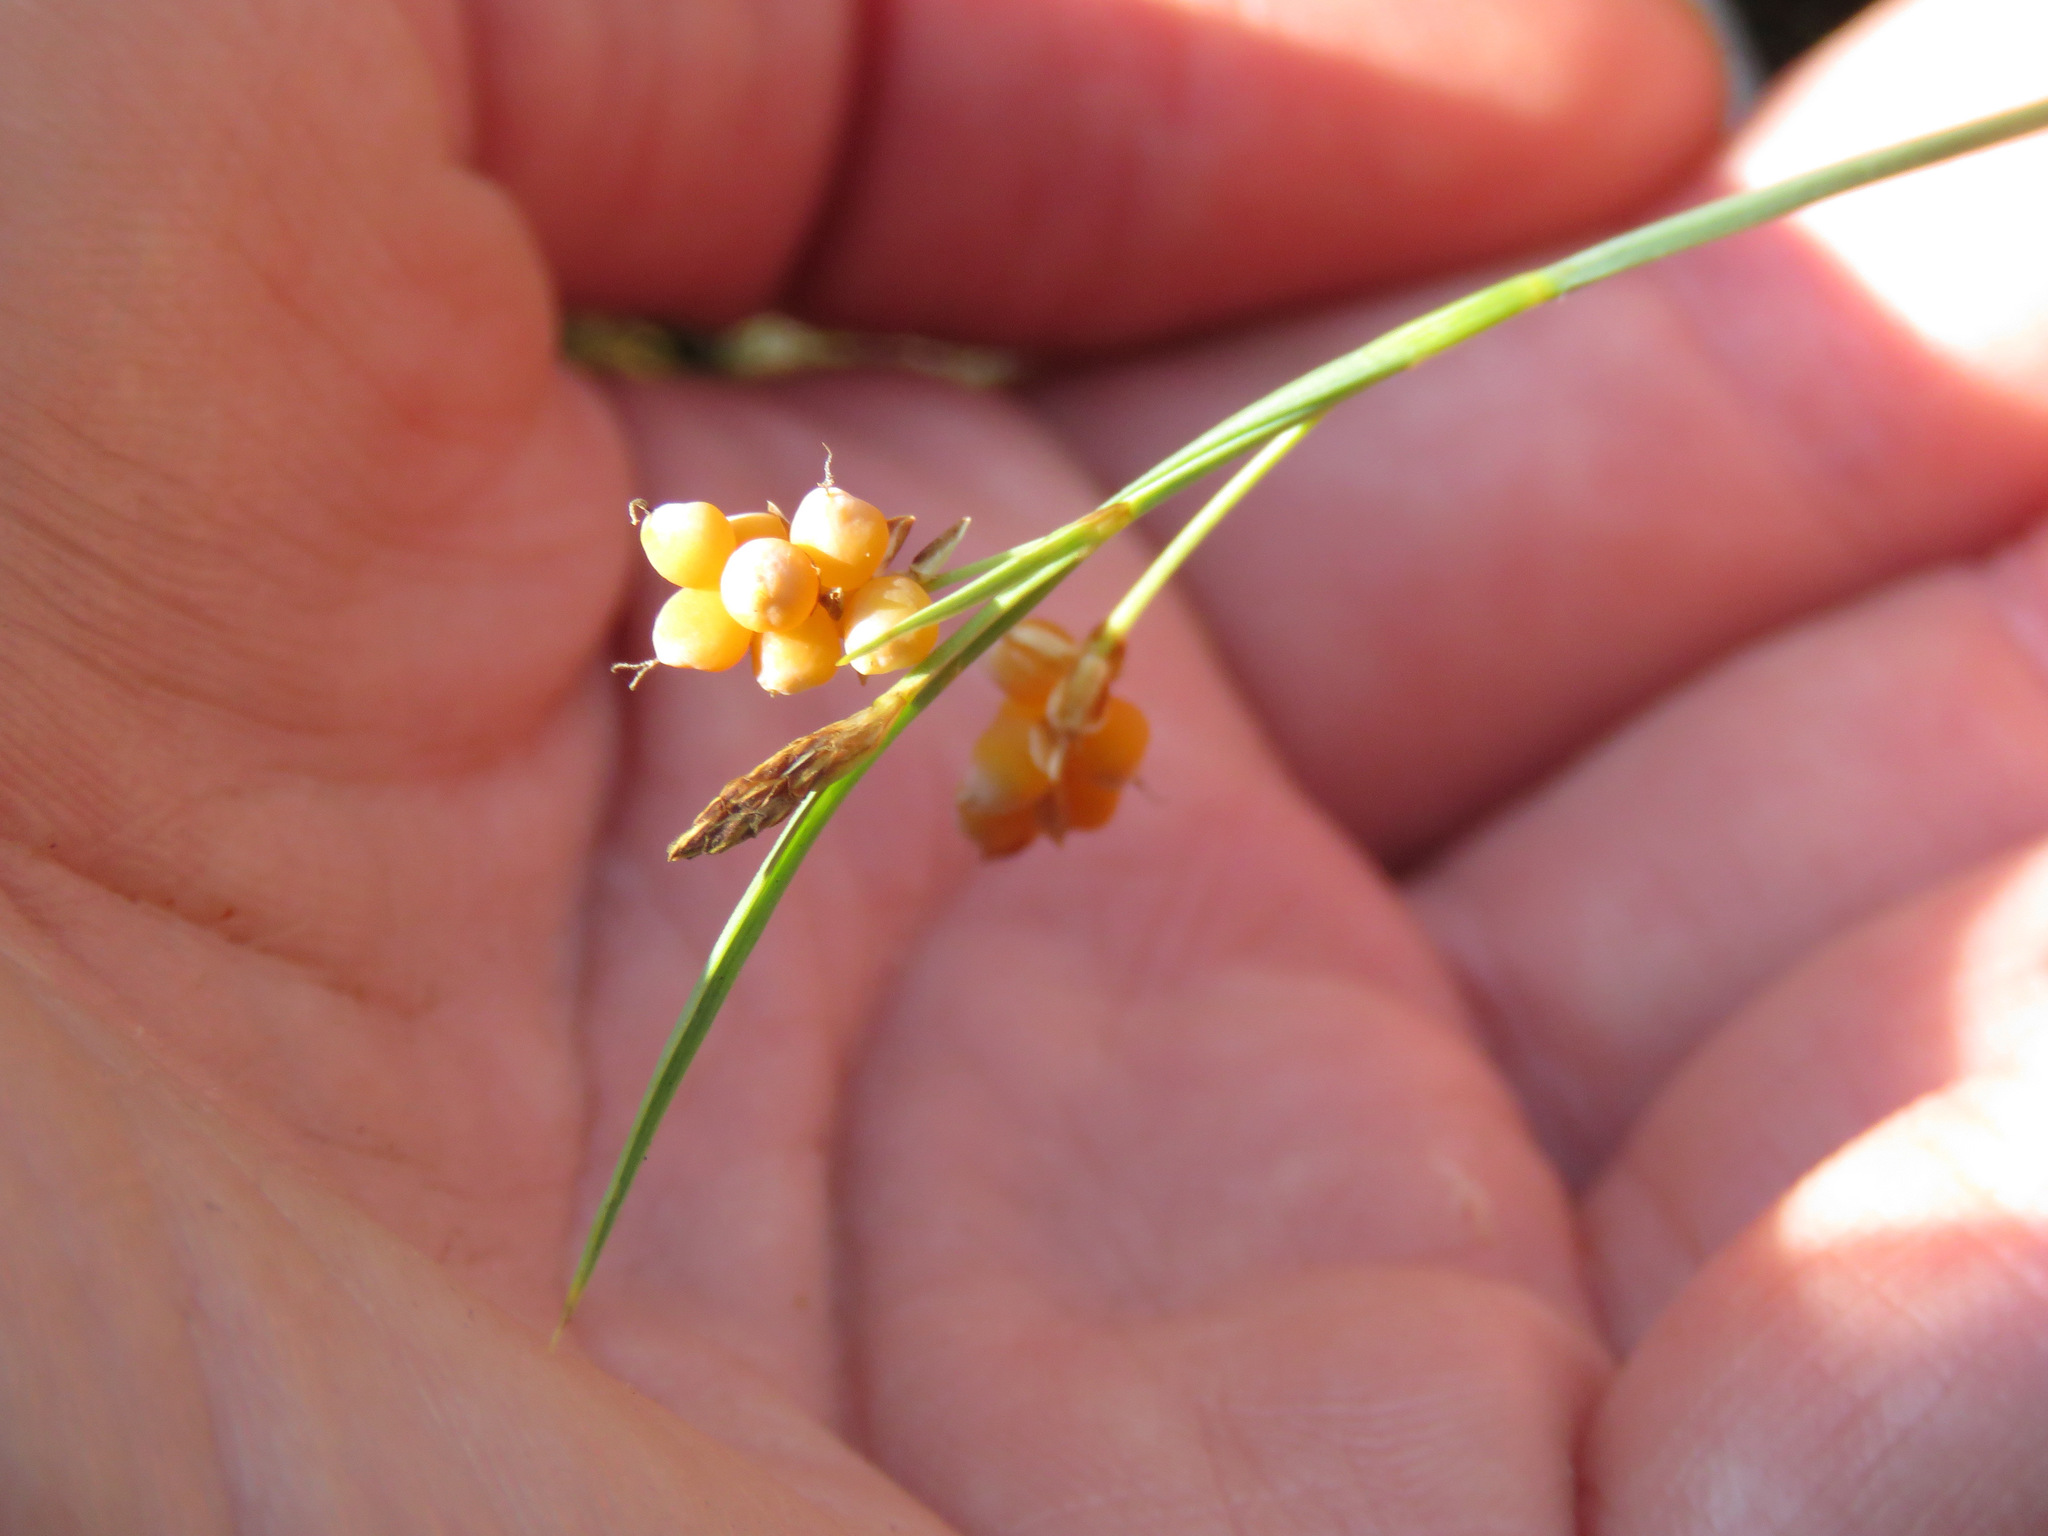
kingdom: Plantae
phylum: Tracheophyta
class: Liliopsida
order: Poales
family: Cyperaceae
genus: Carex
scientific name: Carex aurea
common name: Golden sedge
